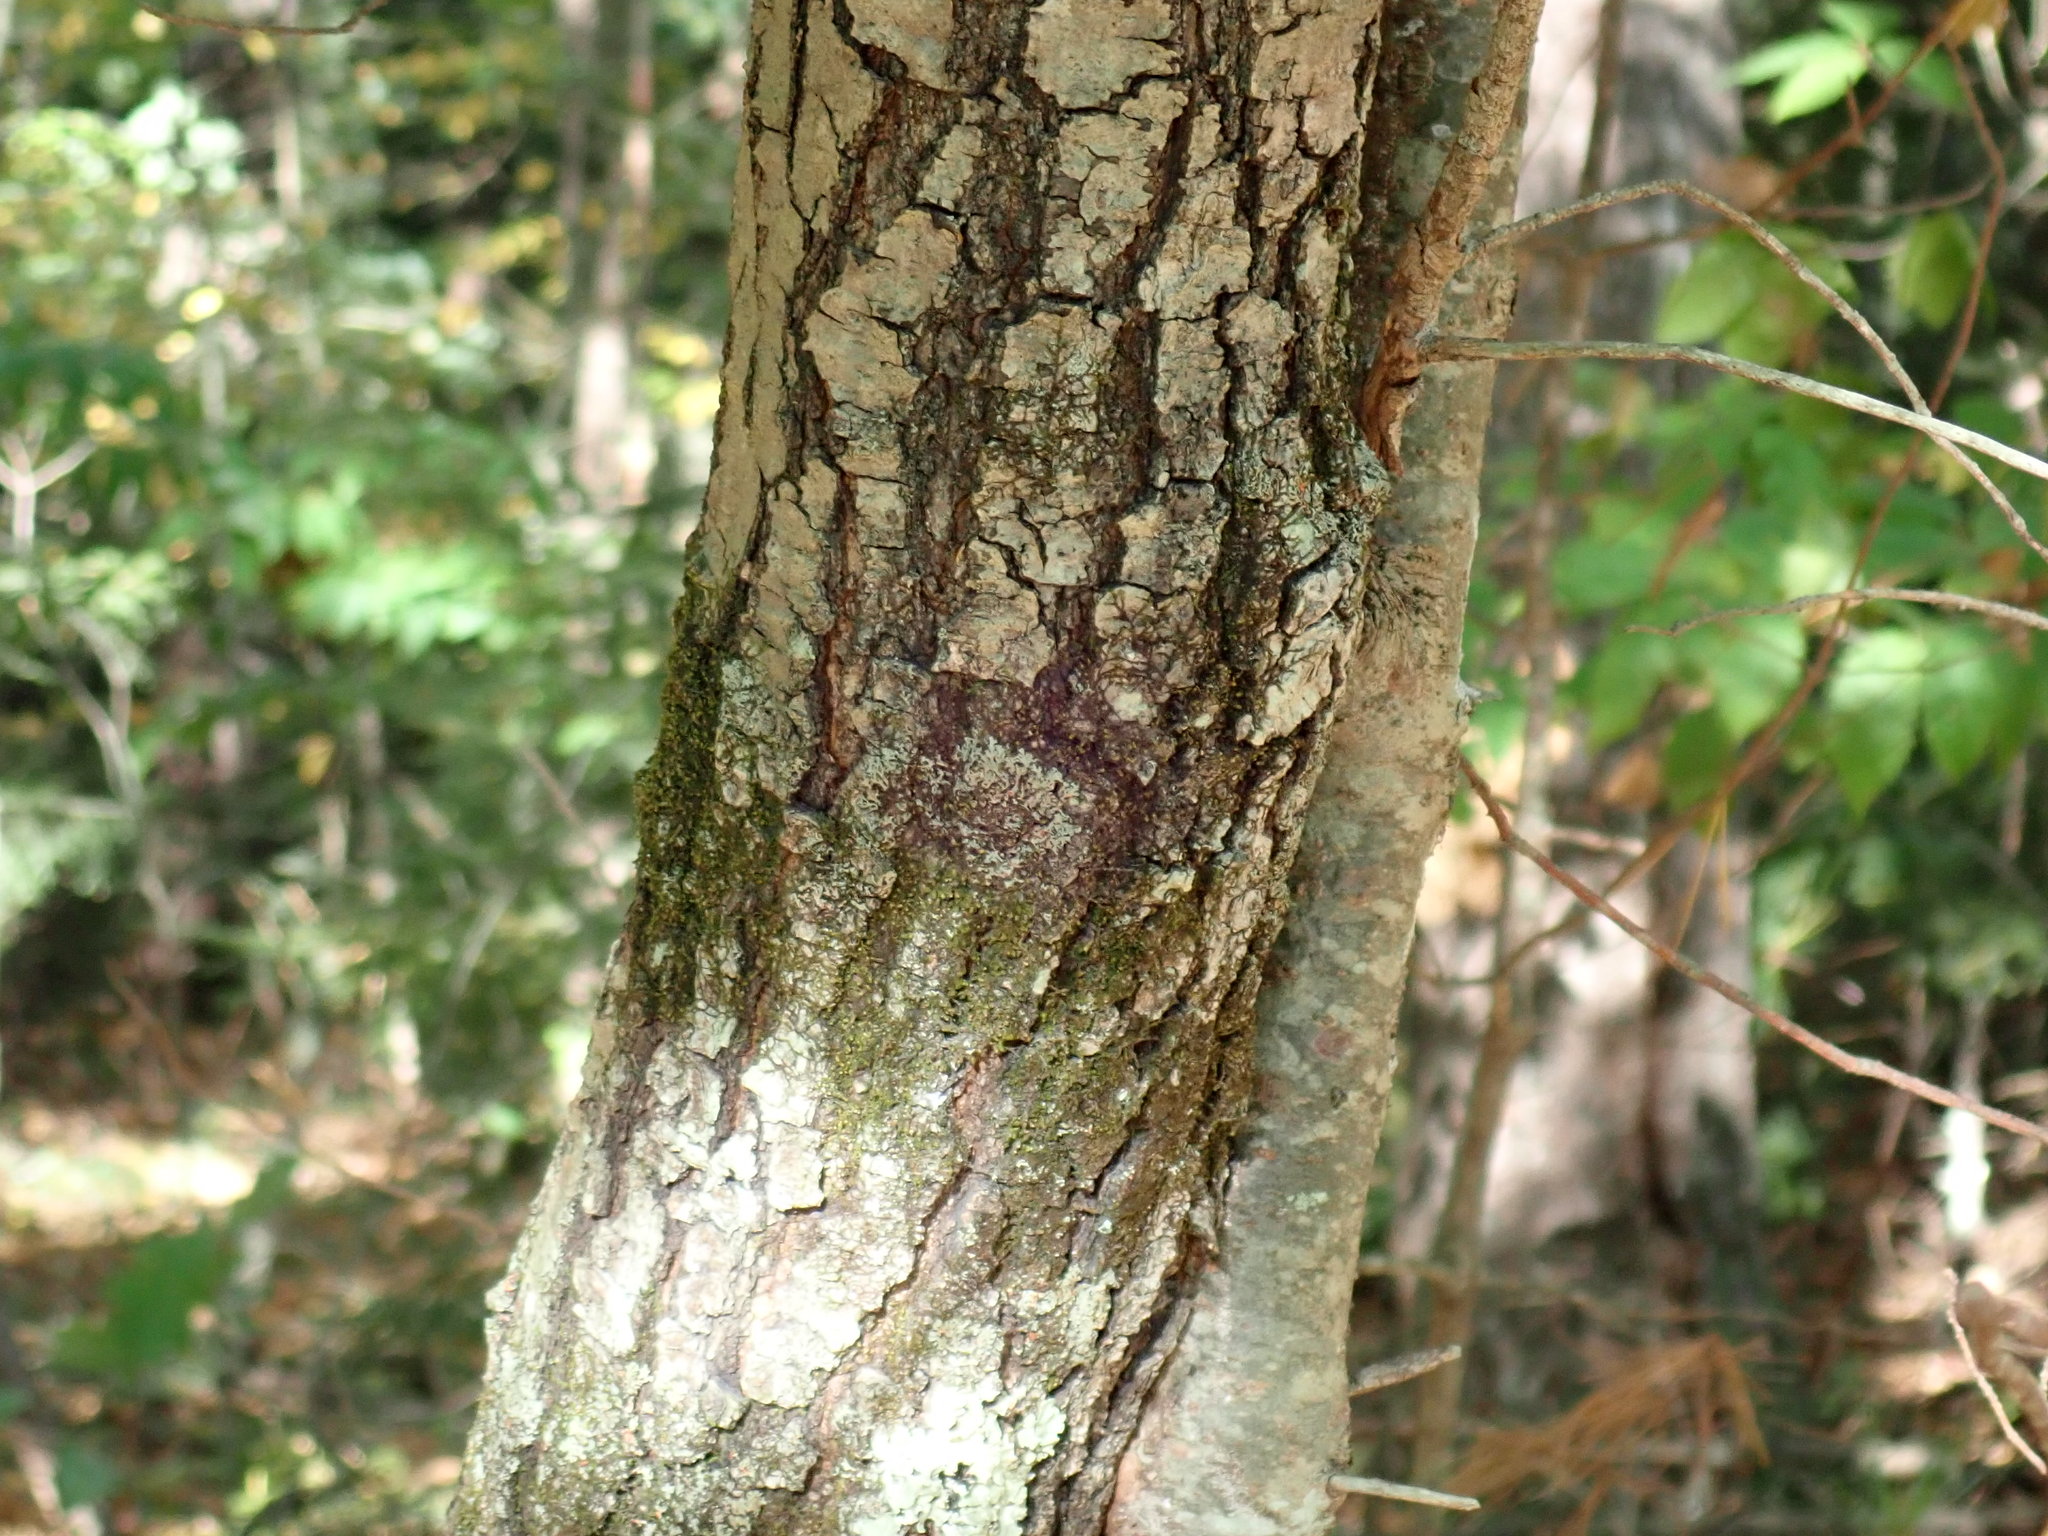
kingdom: Plantae
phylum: Tracheophyta
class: Magnoliopsida
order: Fagales
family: Fagaceae
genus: Quercus
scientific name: Quercus velutina
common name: Black oak
